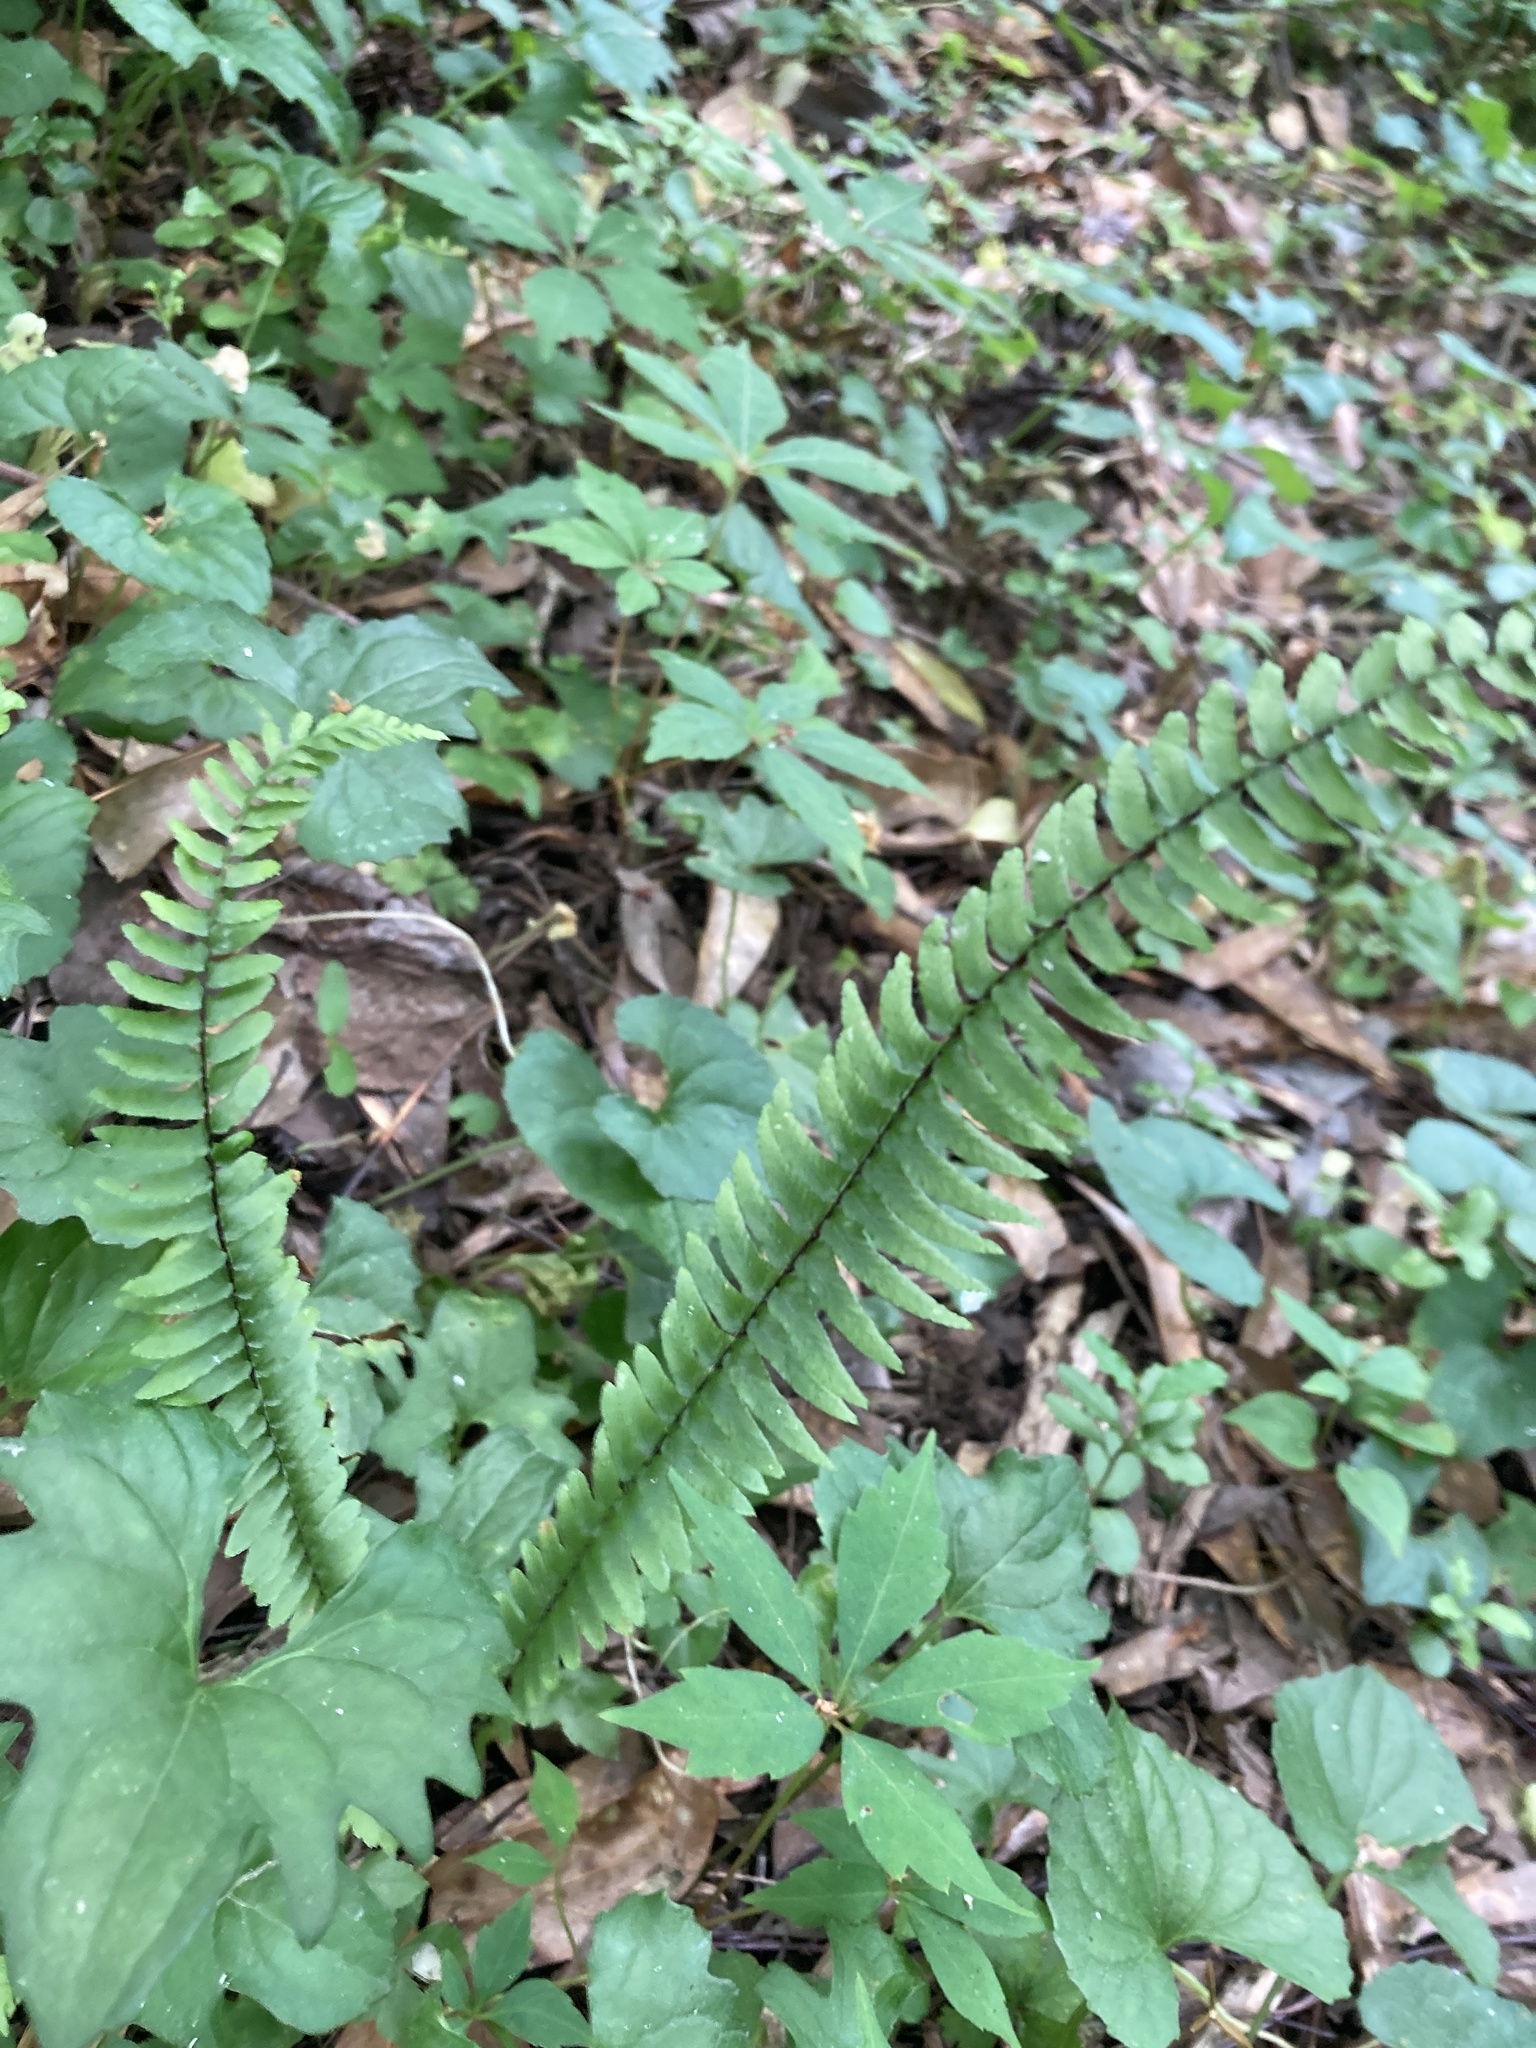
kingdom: Plantae
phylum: Tracheophyta
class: Polypodiopsida
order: Polypodiales
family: Aspleniaceae
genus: Asplenium
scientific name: Asplenium platyneuron
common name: Ebony spleenwort
